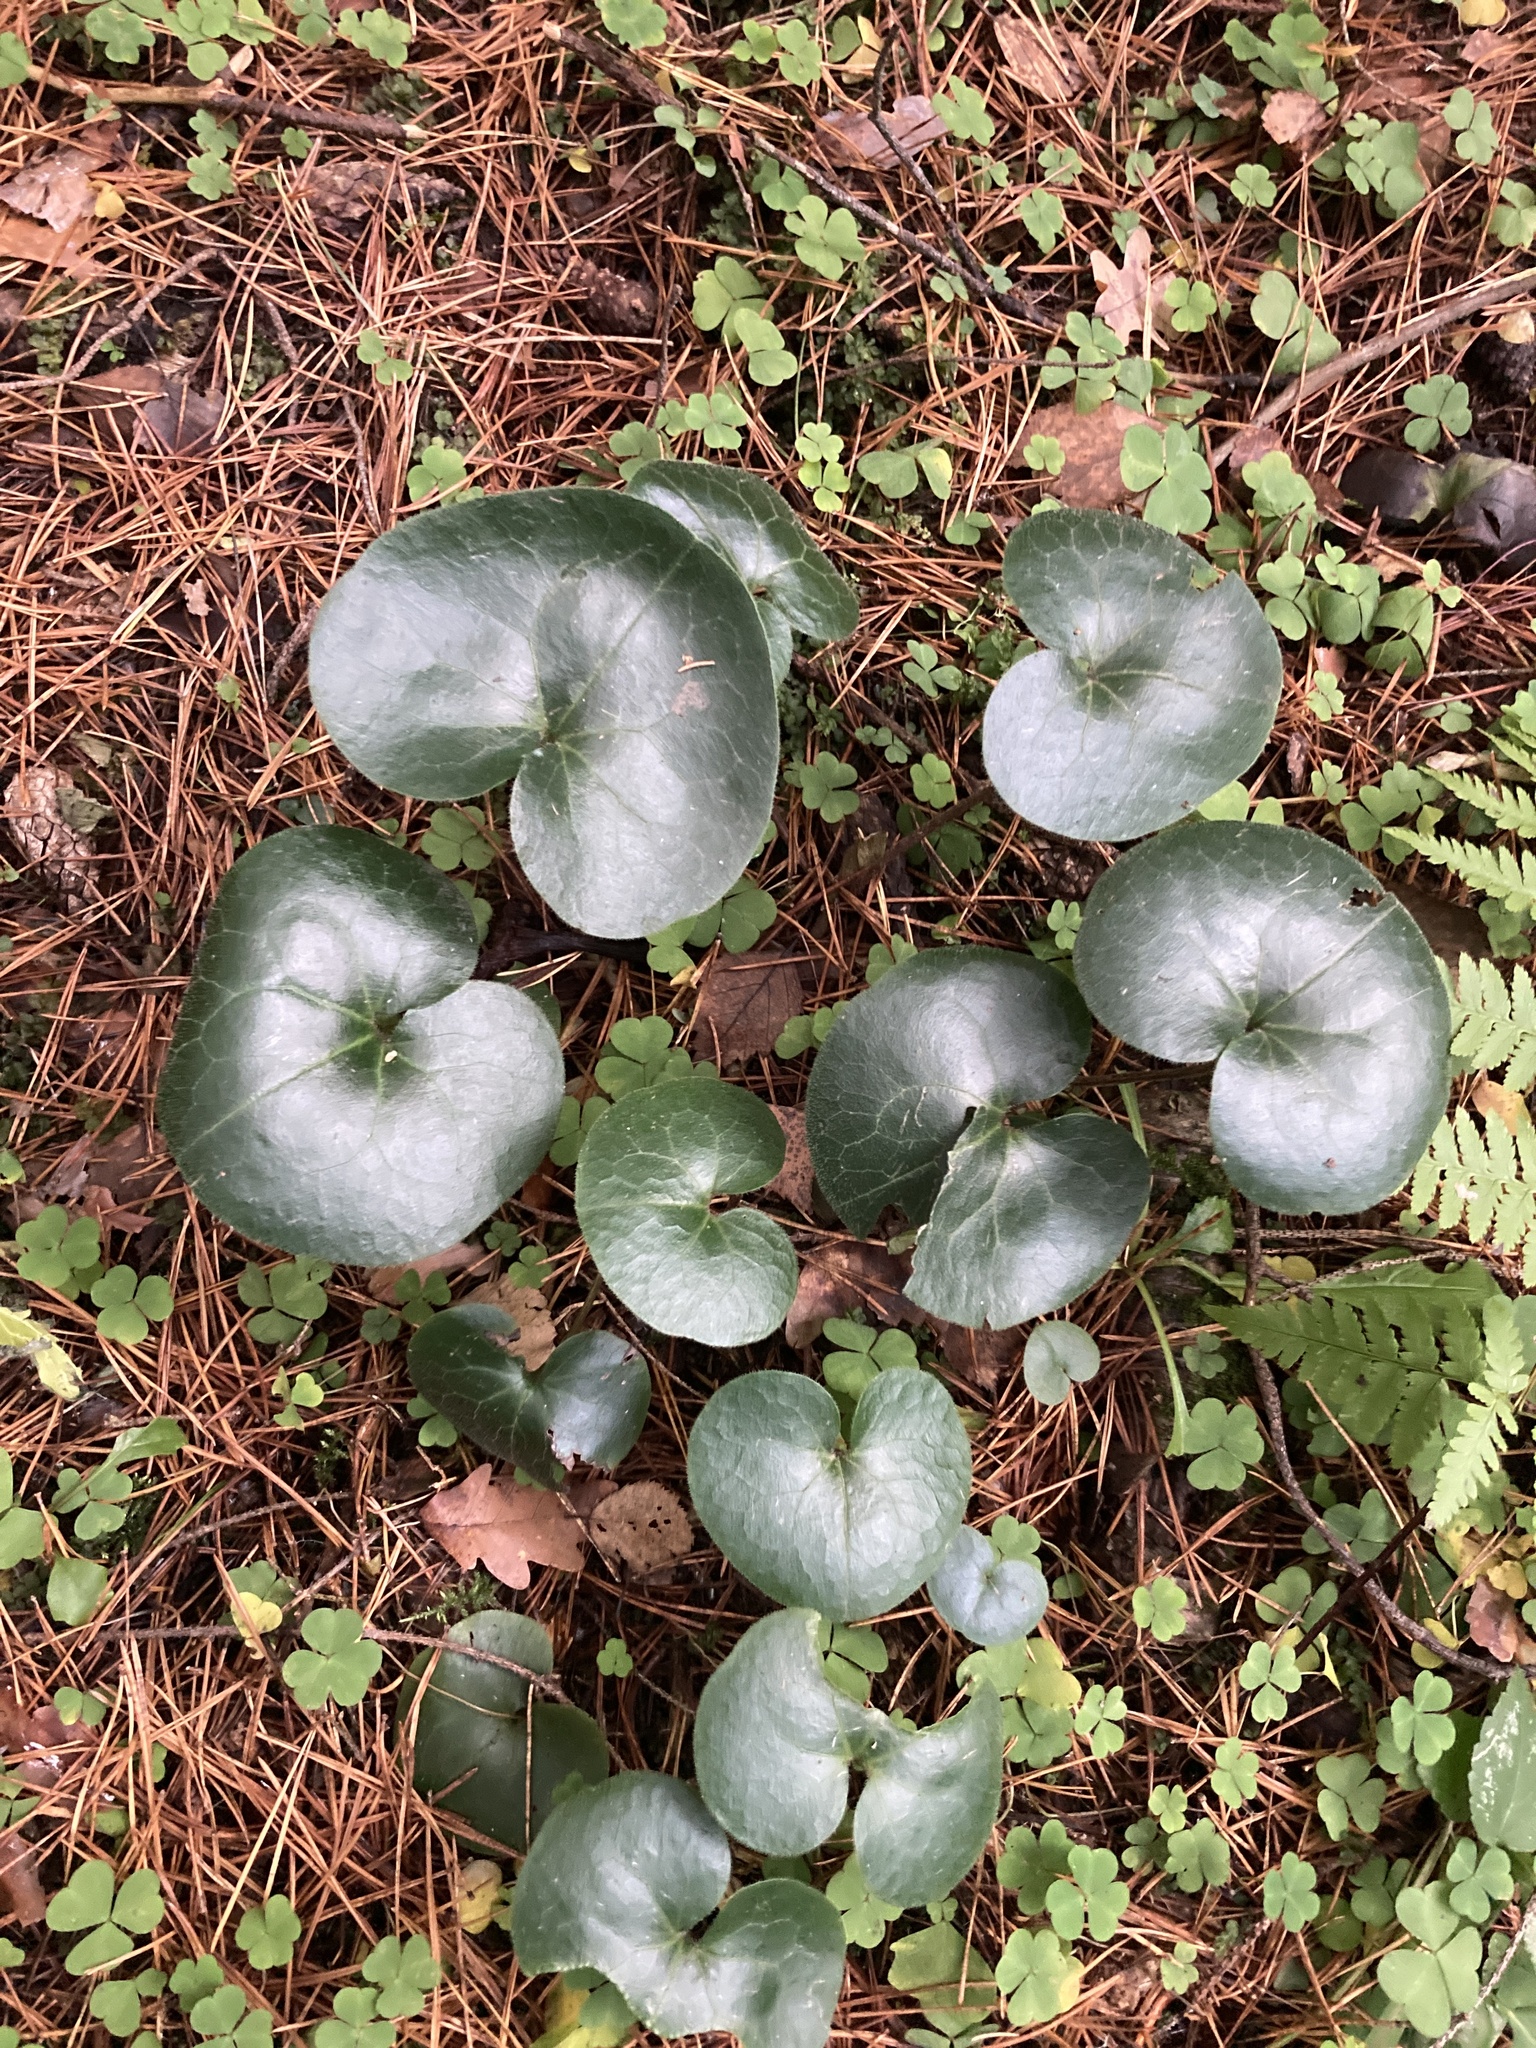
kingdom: Plantae
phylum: Tracheophyta
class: Magnoliopsida
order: Piperales
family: Aristolochiaceae
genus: Asarum
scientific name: Asarum europaeum
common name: Asarabacca
